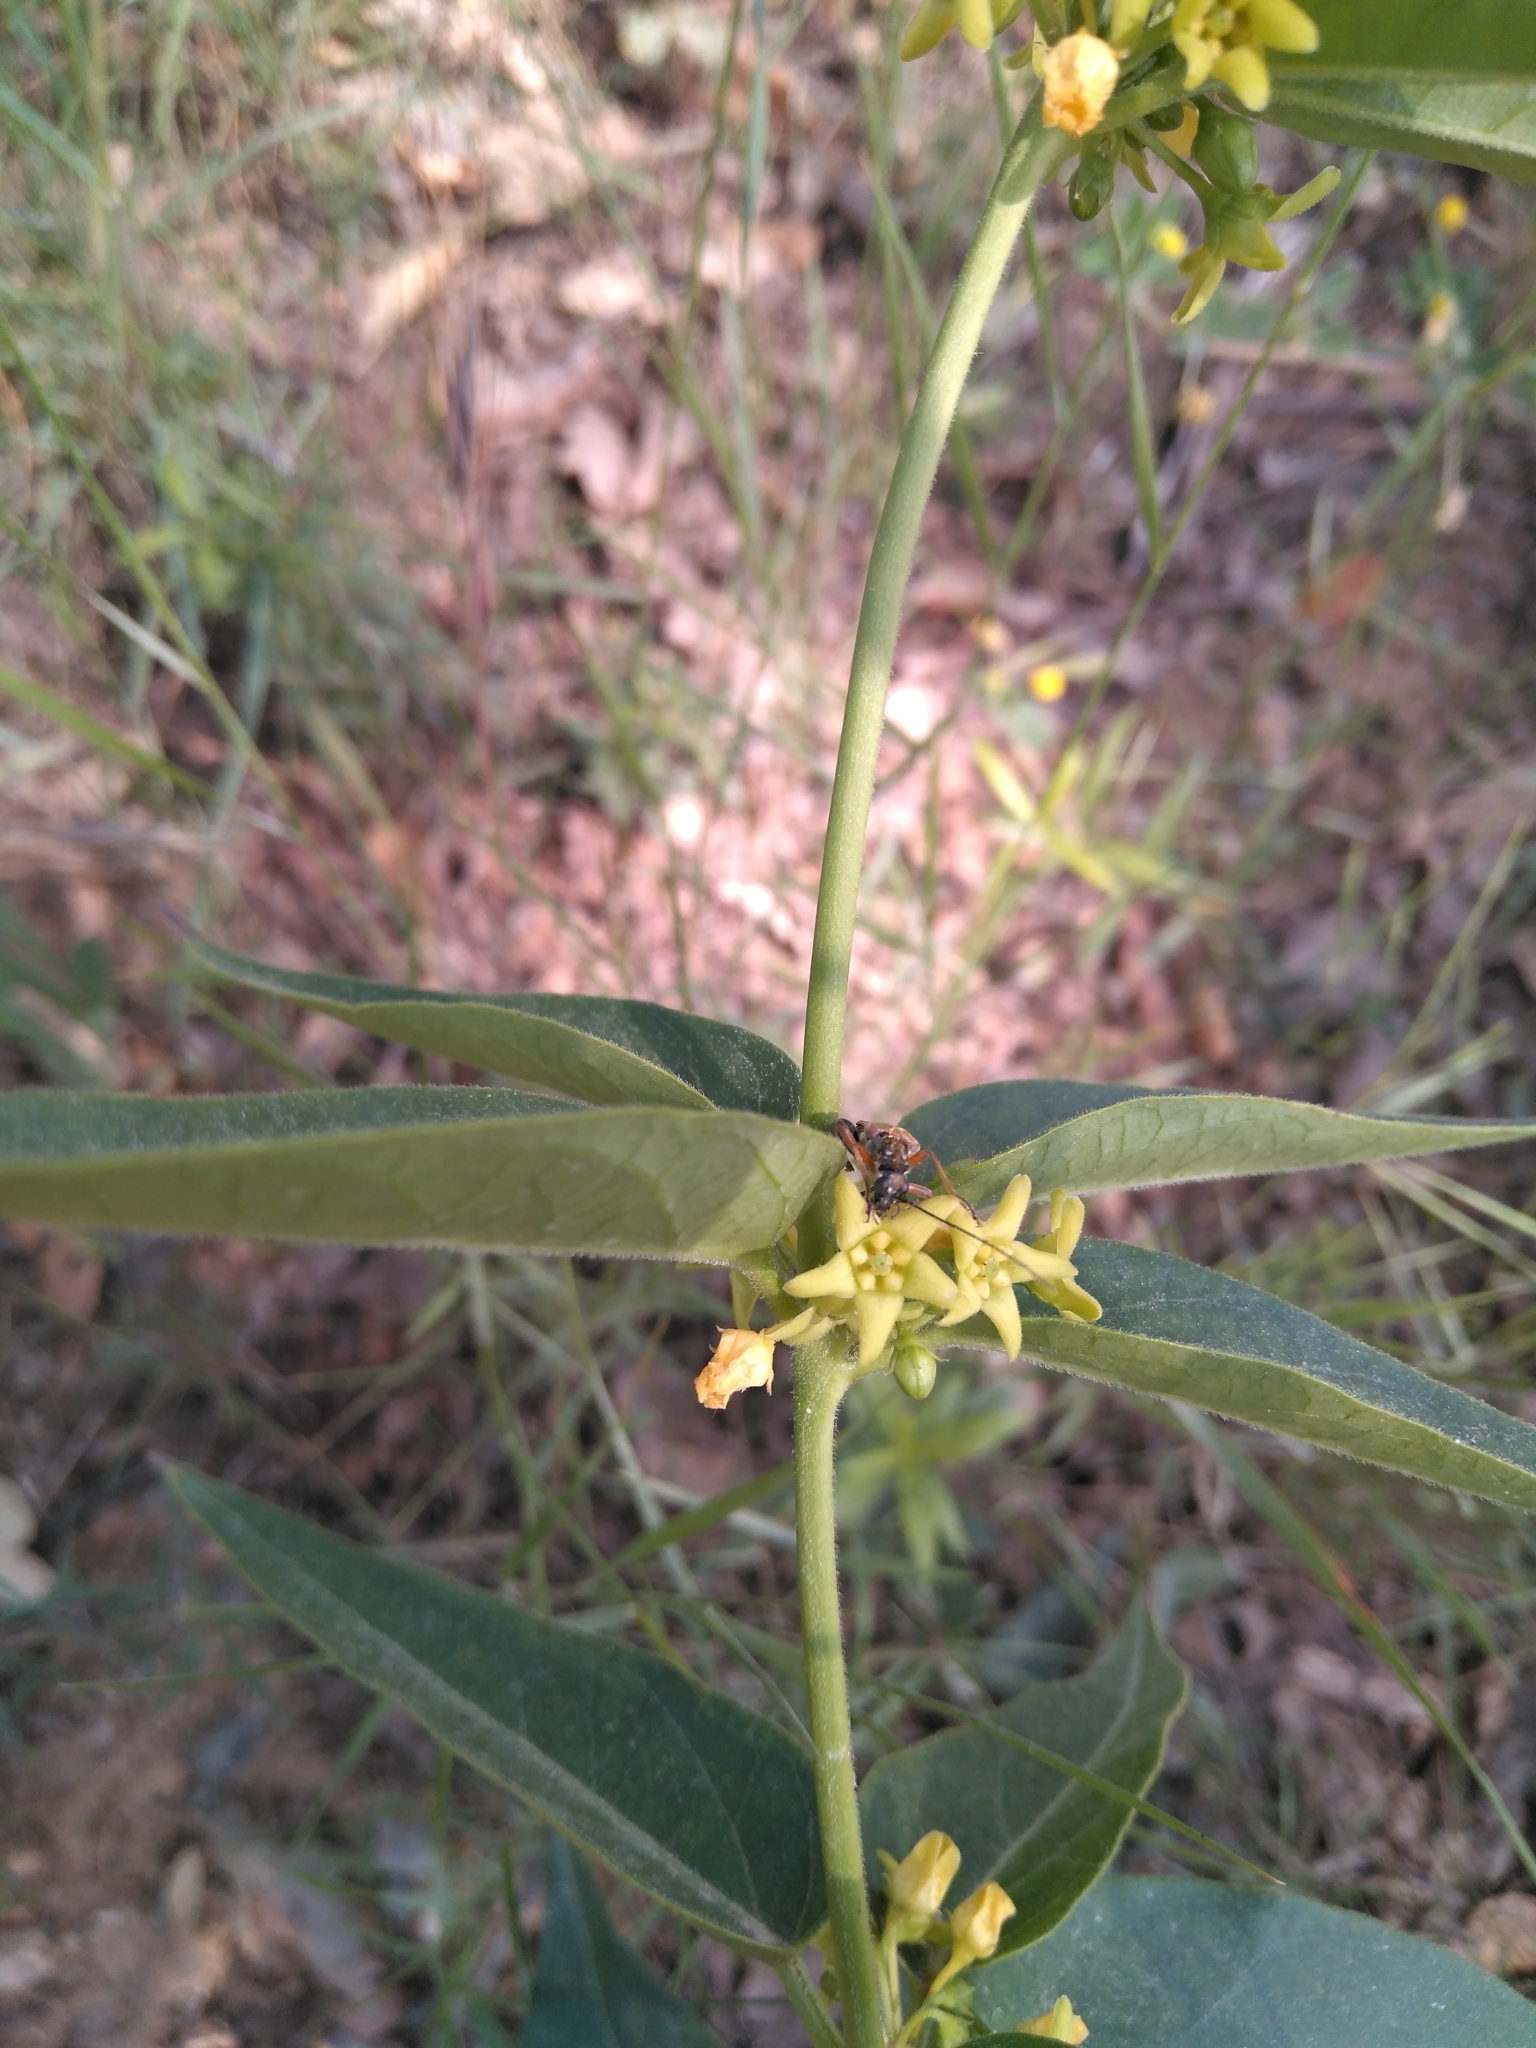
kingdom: Plantae
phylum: Tracheophyta
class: Magnoliopsida
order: Gentianales
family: Apocynaceae
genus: Vincetoxicum
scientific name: Vincetoxicum hirundinaria
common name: White swallowwort
